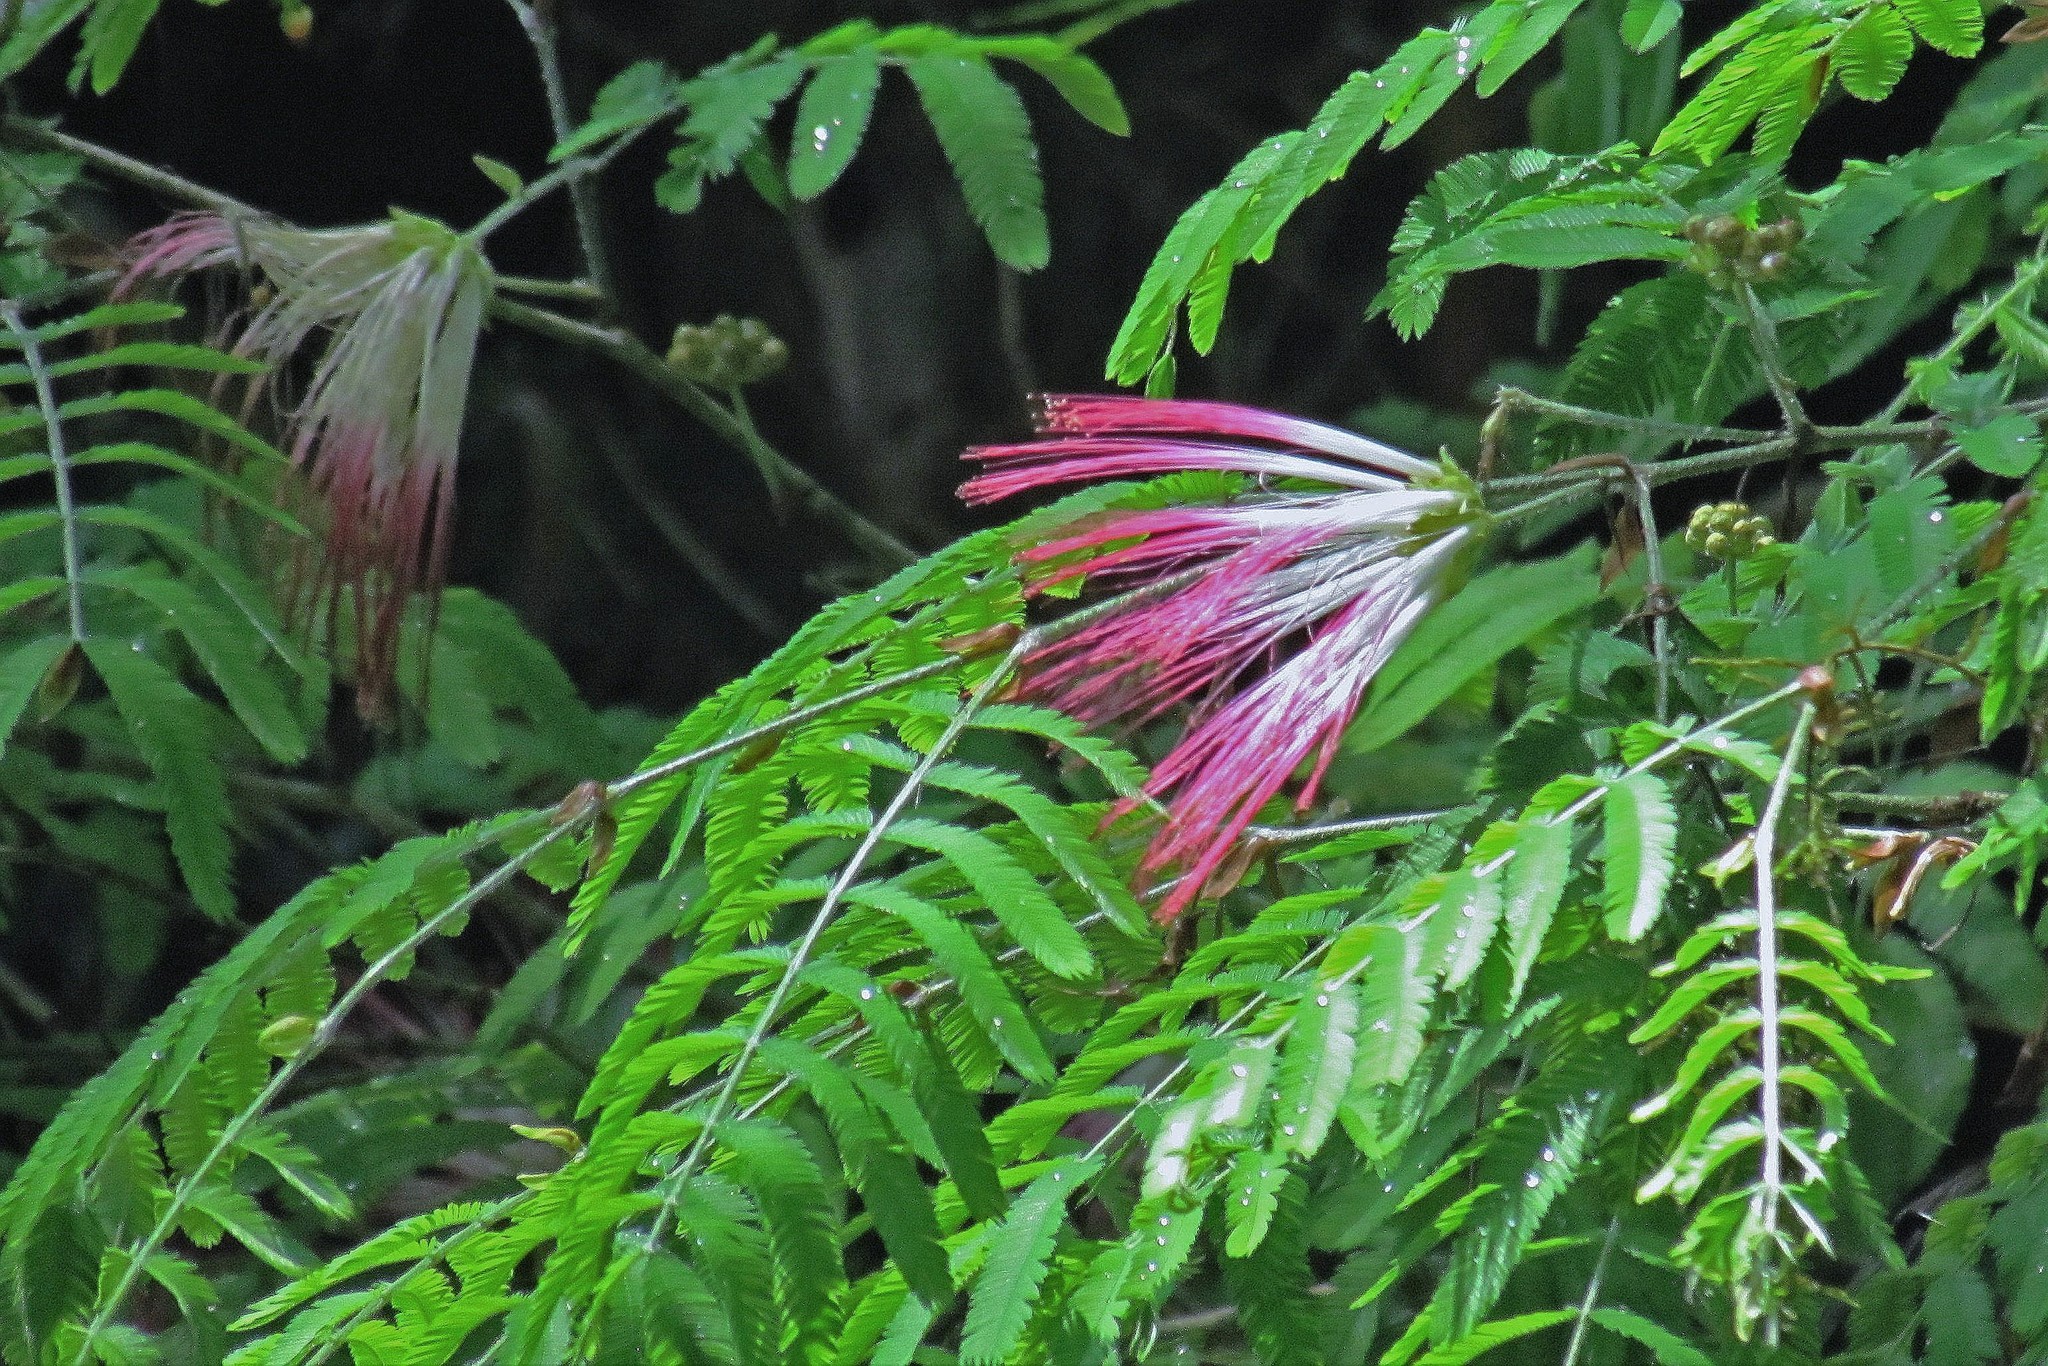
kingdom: Plantae
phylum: Tracheophyta
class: Magnoliopsida
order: Fabales
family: Fabaceae
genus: Calliandra
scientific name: Calliandra foliolosa
